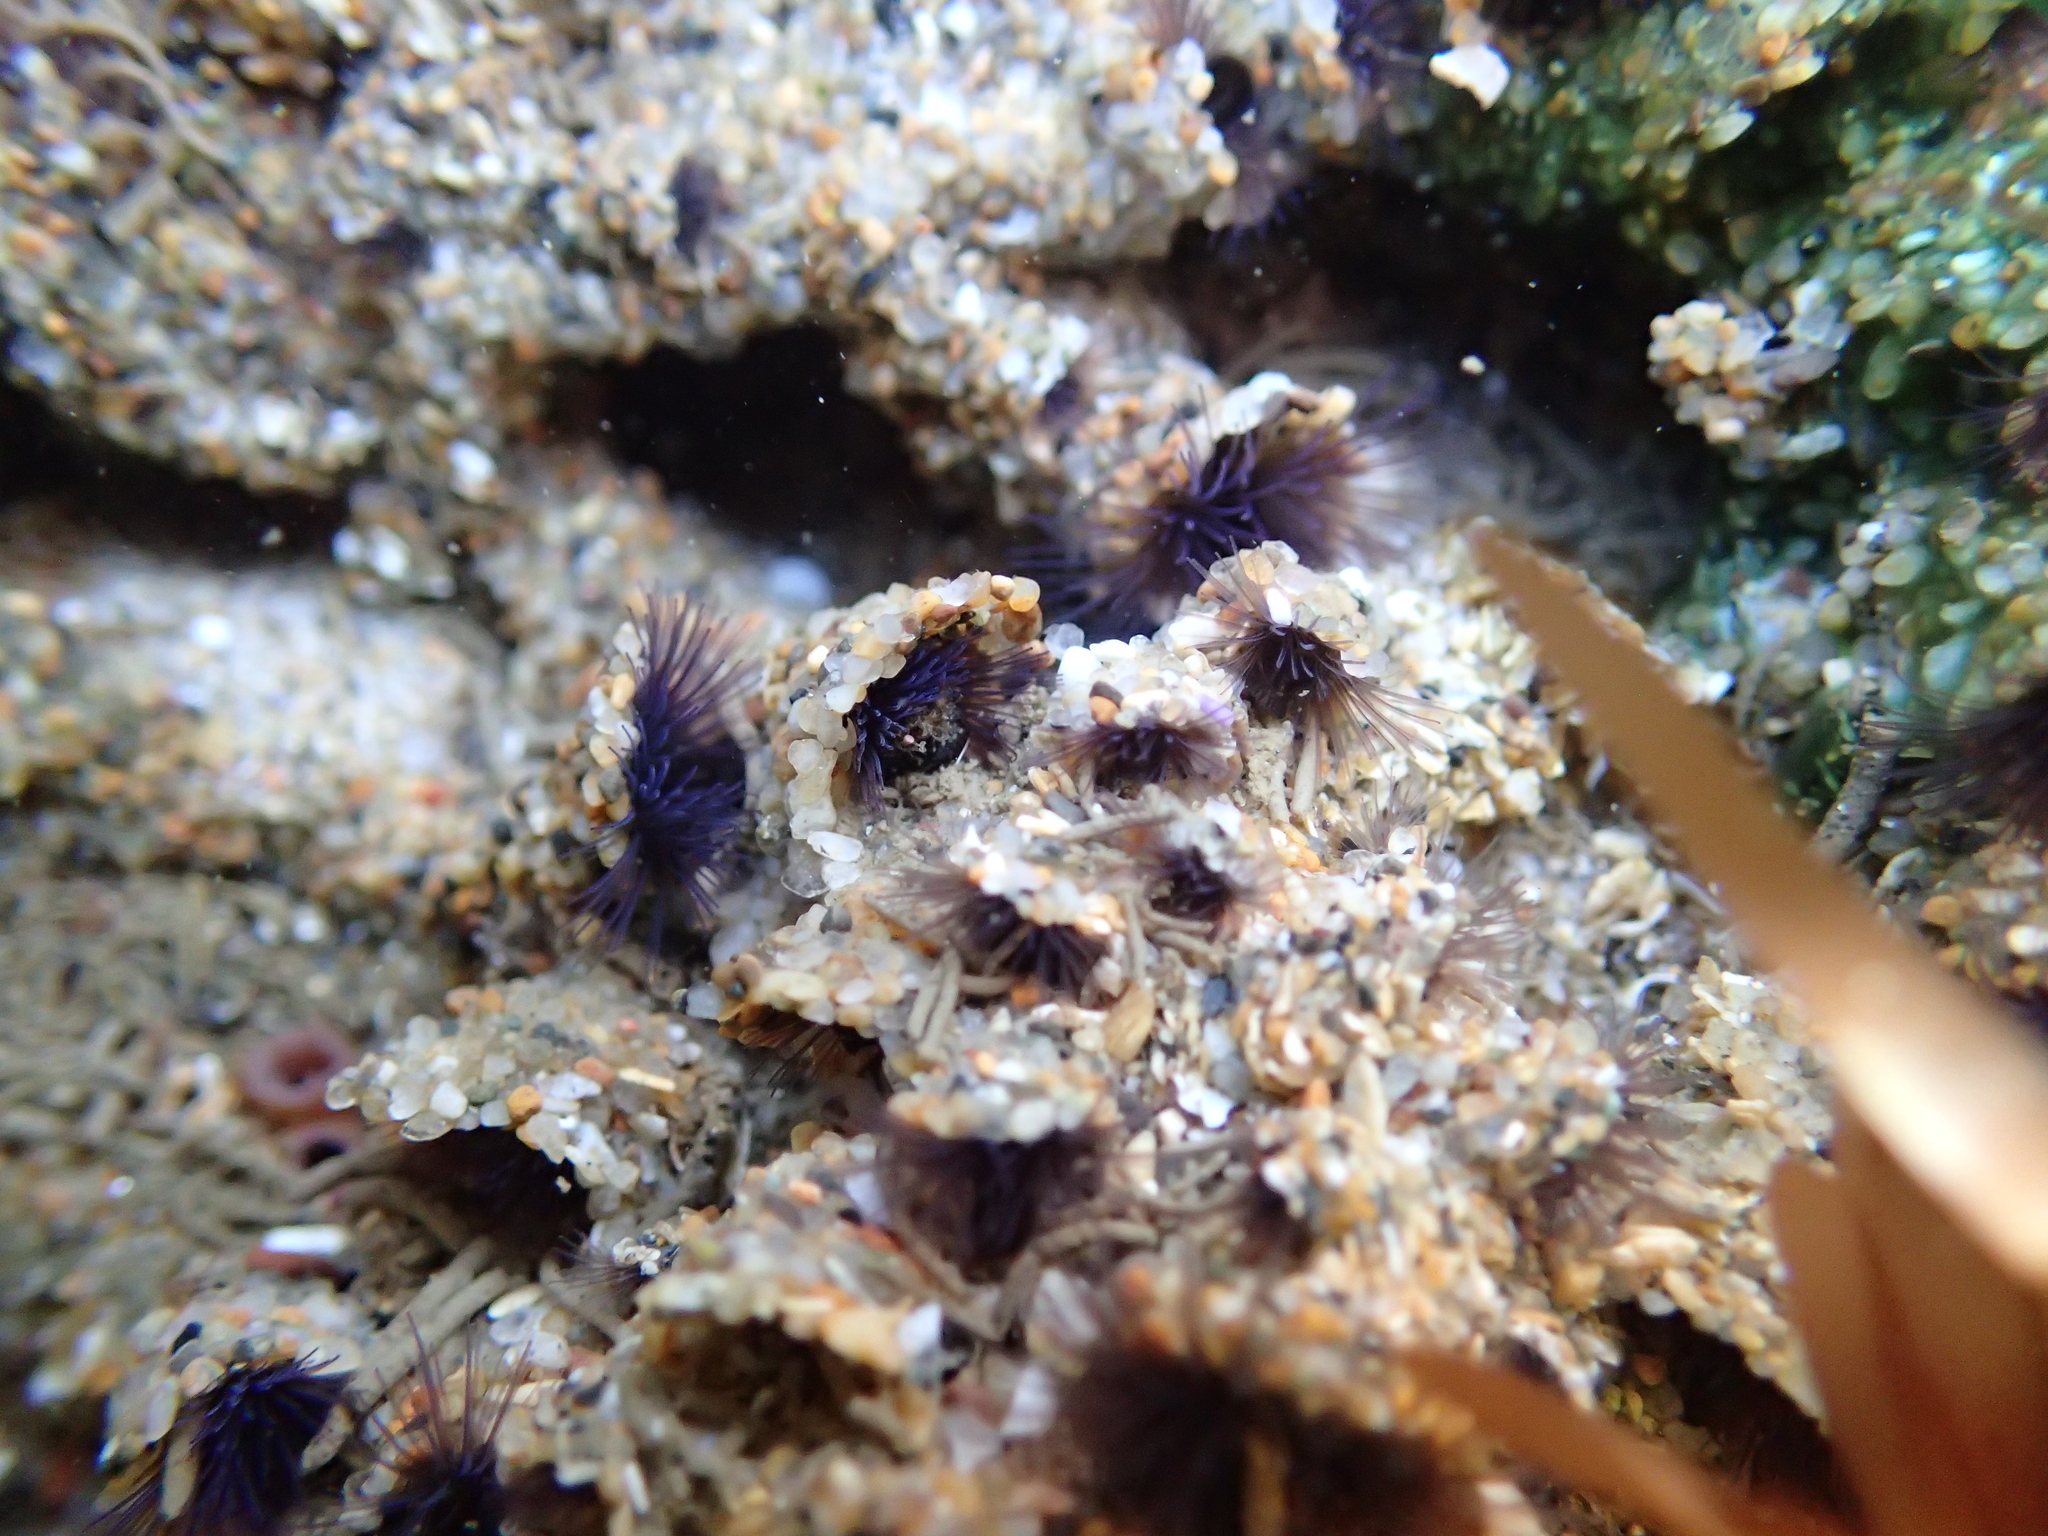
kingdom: Animalia
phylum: Annelida
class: Polychaeta
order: Sabellida
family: Sabellariidae
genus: Phragmatopoma
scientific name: Phragmatopoma californica
